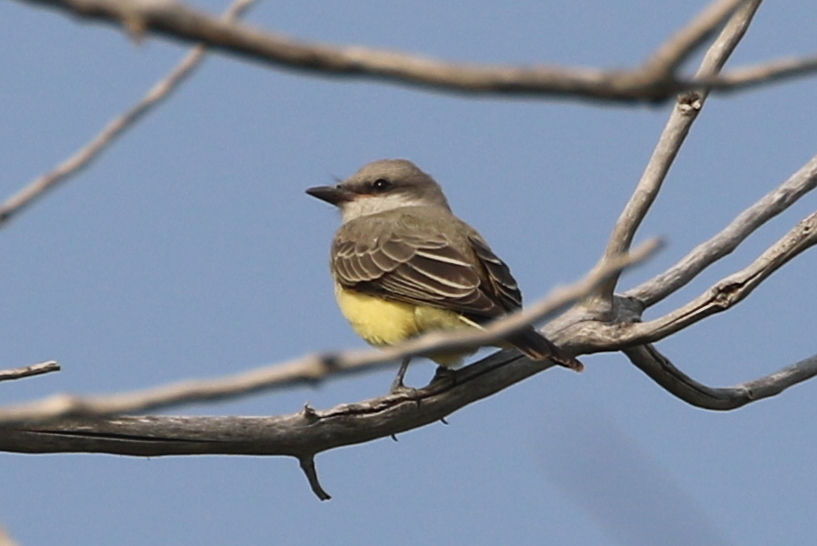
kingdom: Animalia
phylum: Chordata
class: Aves
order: Passeriformes
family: Tyrannidae
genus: Tyrannus
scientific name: Tyrannus verticalis
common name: Western kingbird
